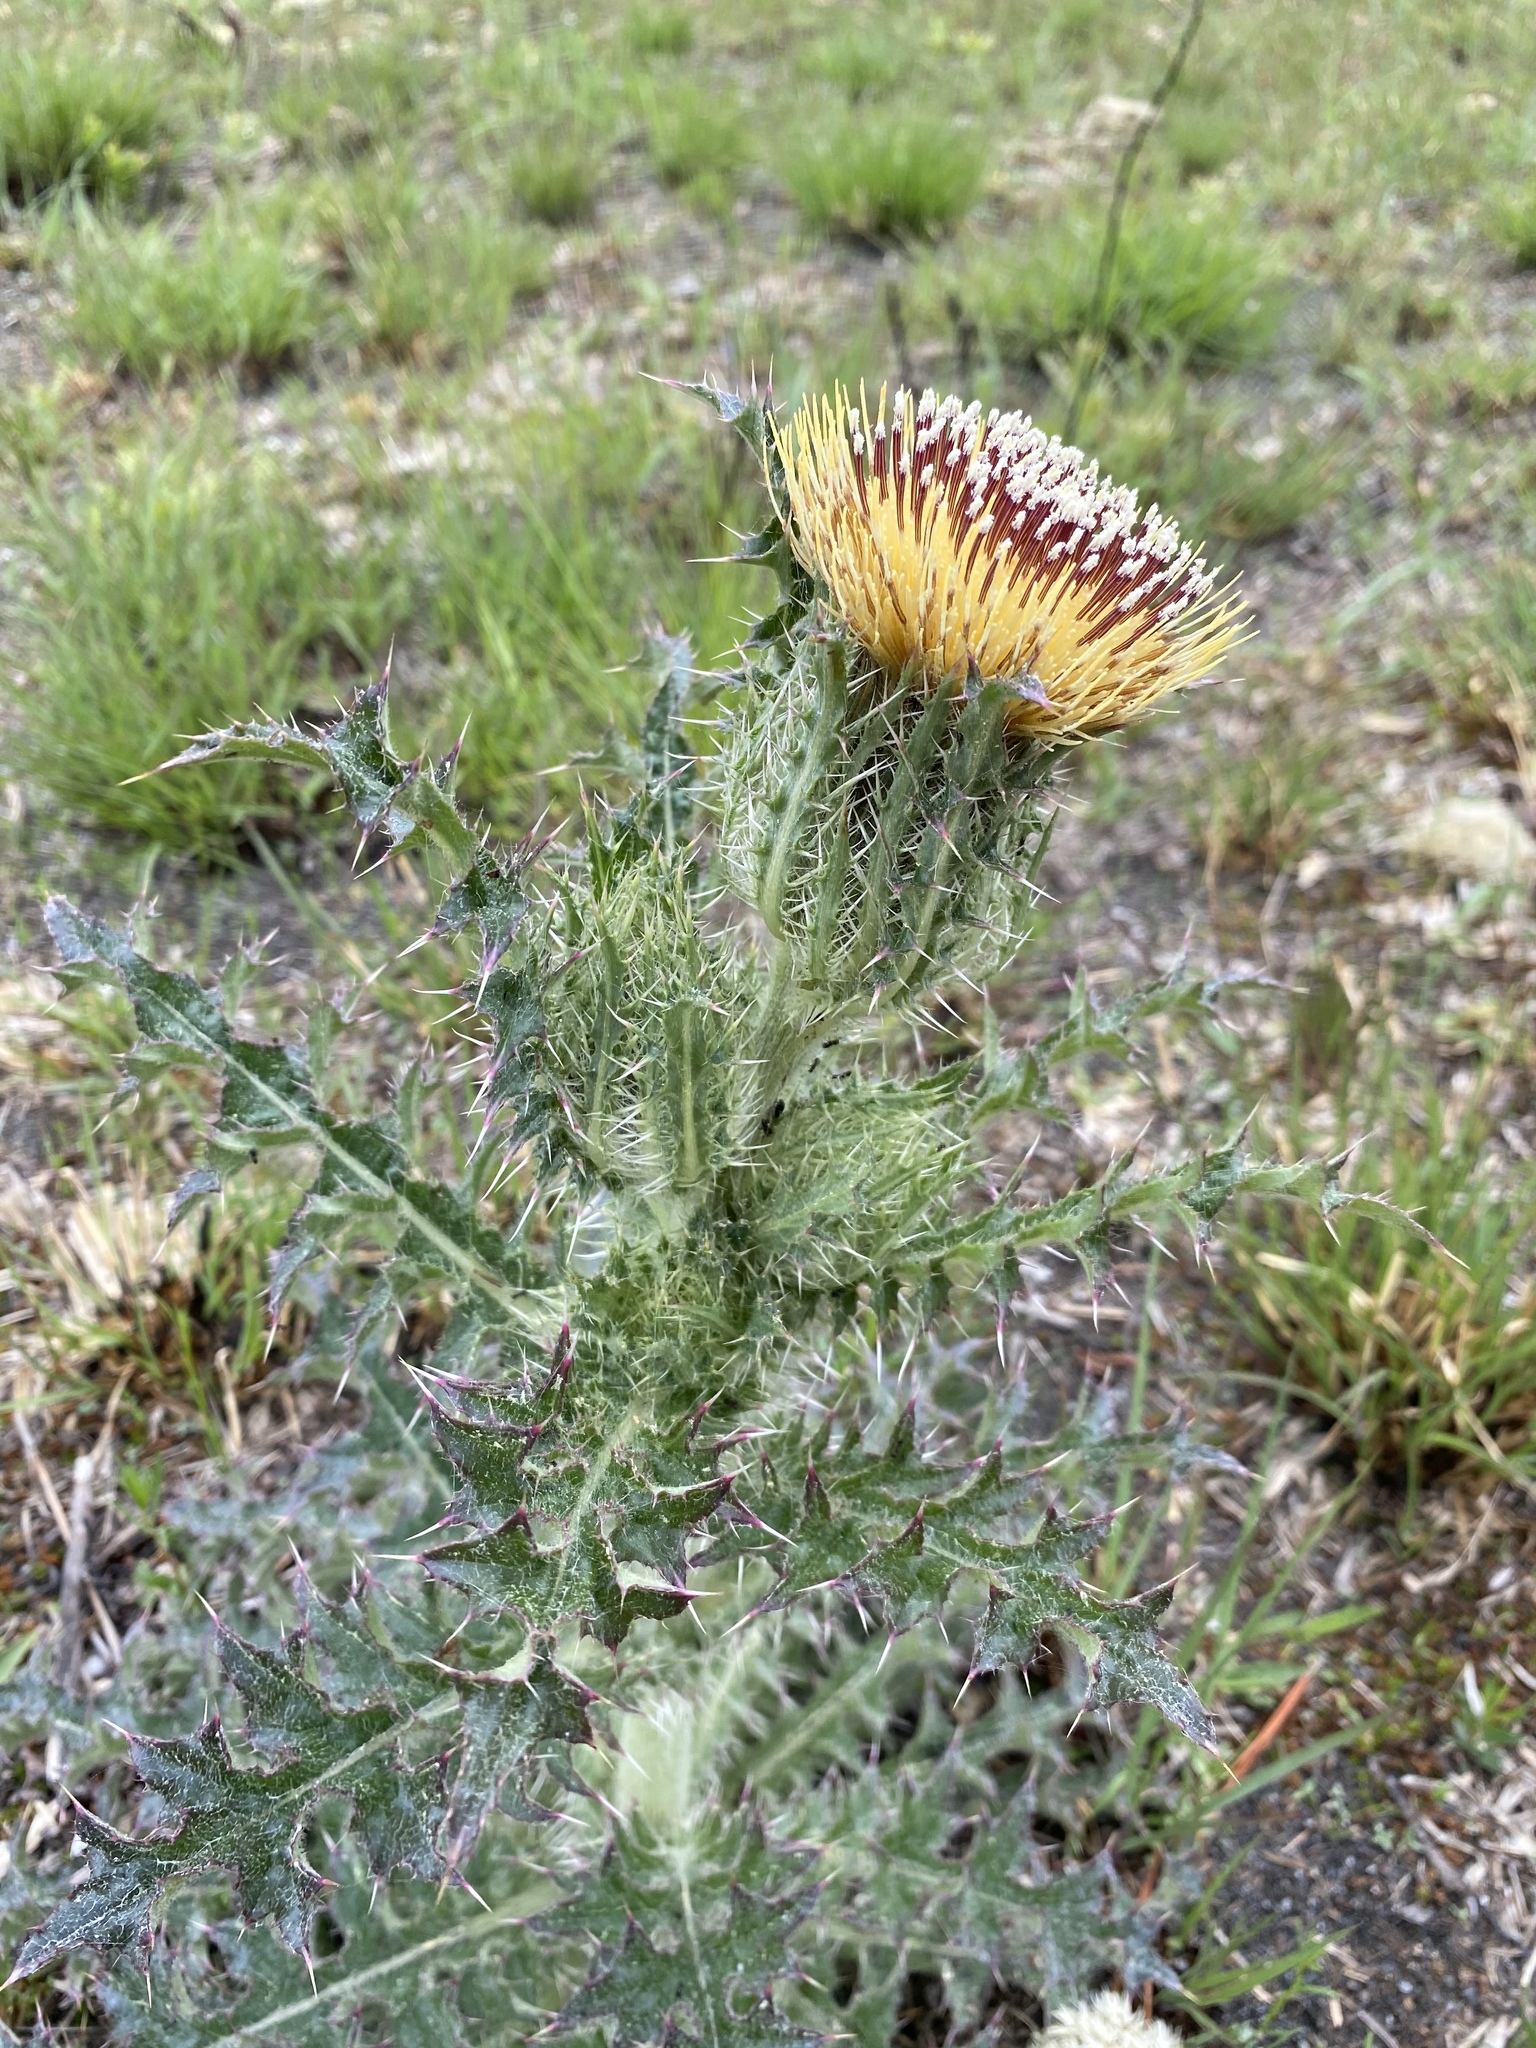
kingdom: Plantae
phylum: Tracheophyta
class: Magnoliopsida
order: Asterales
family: Asteraceae
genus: Cirsium
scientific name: Cirsium horridulum
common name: Bristly thistle
